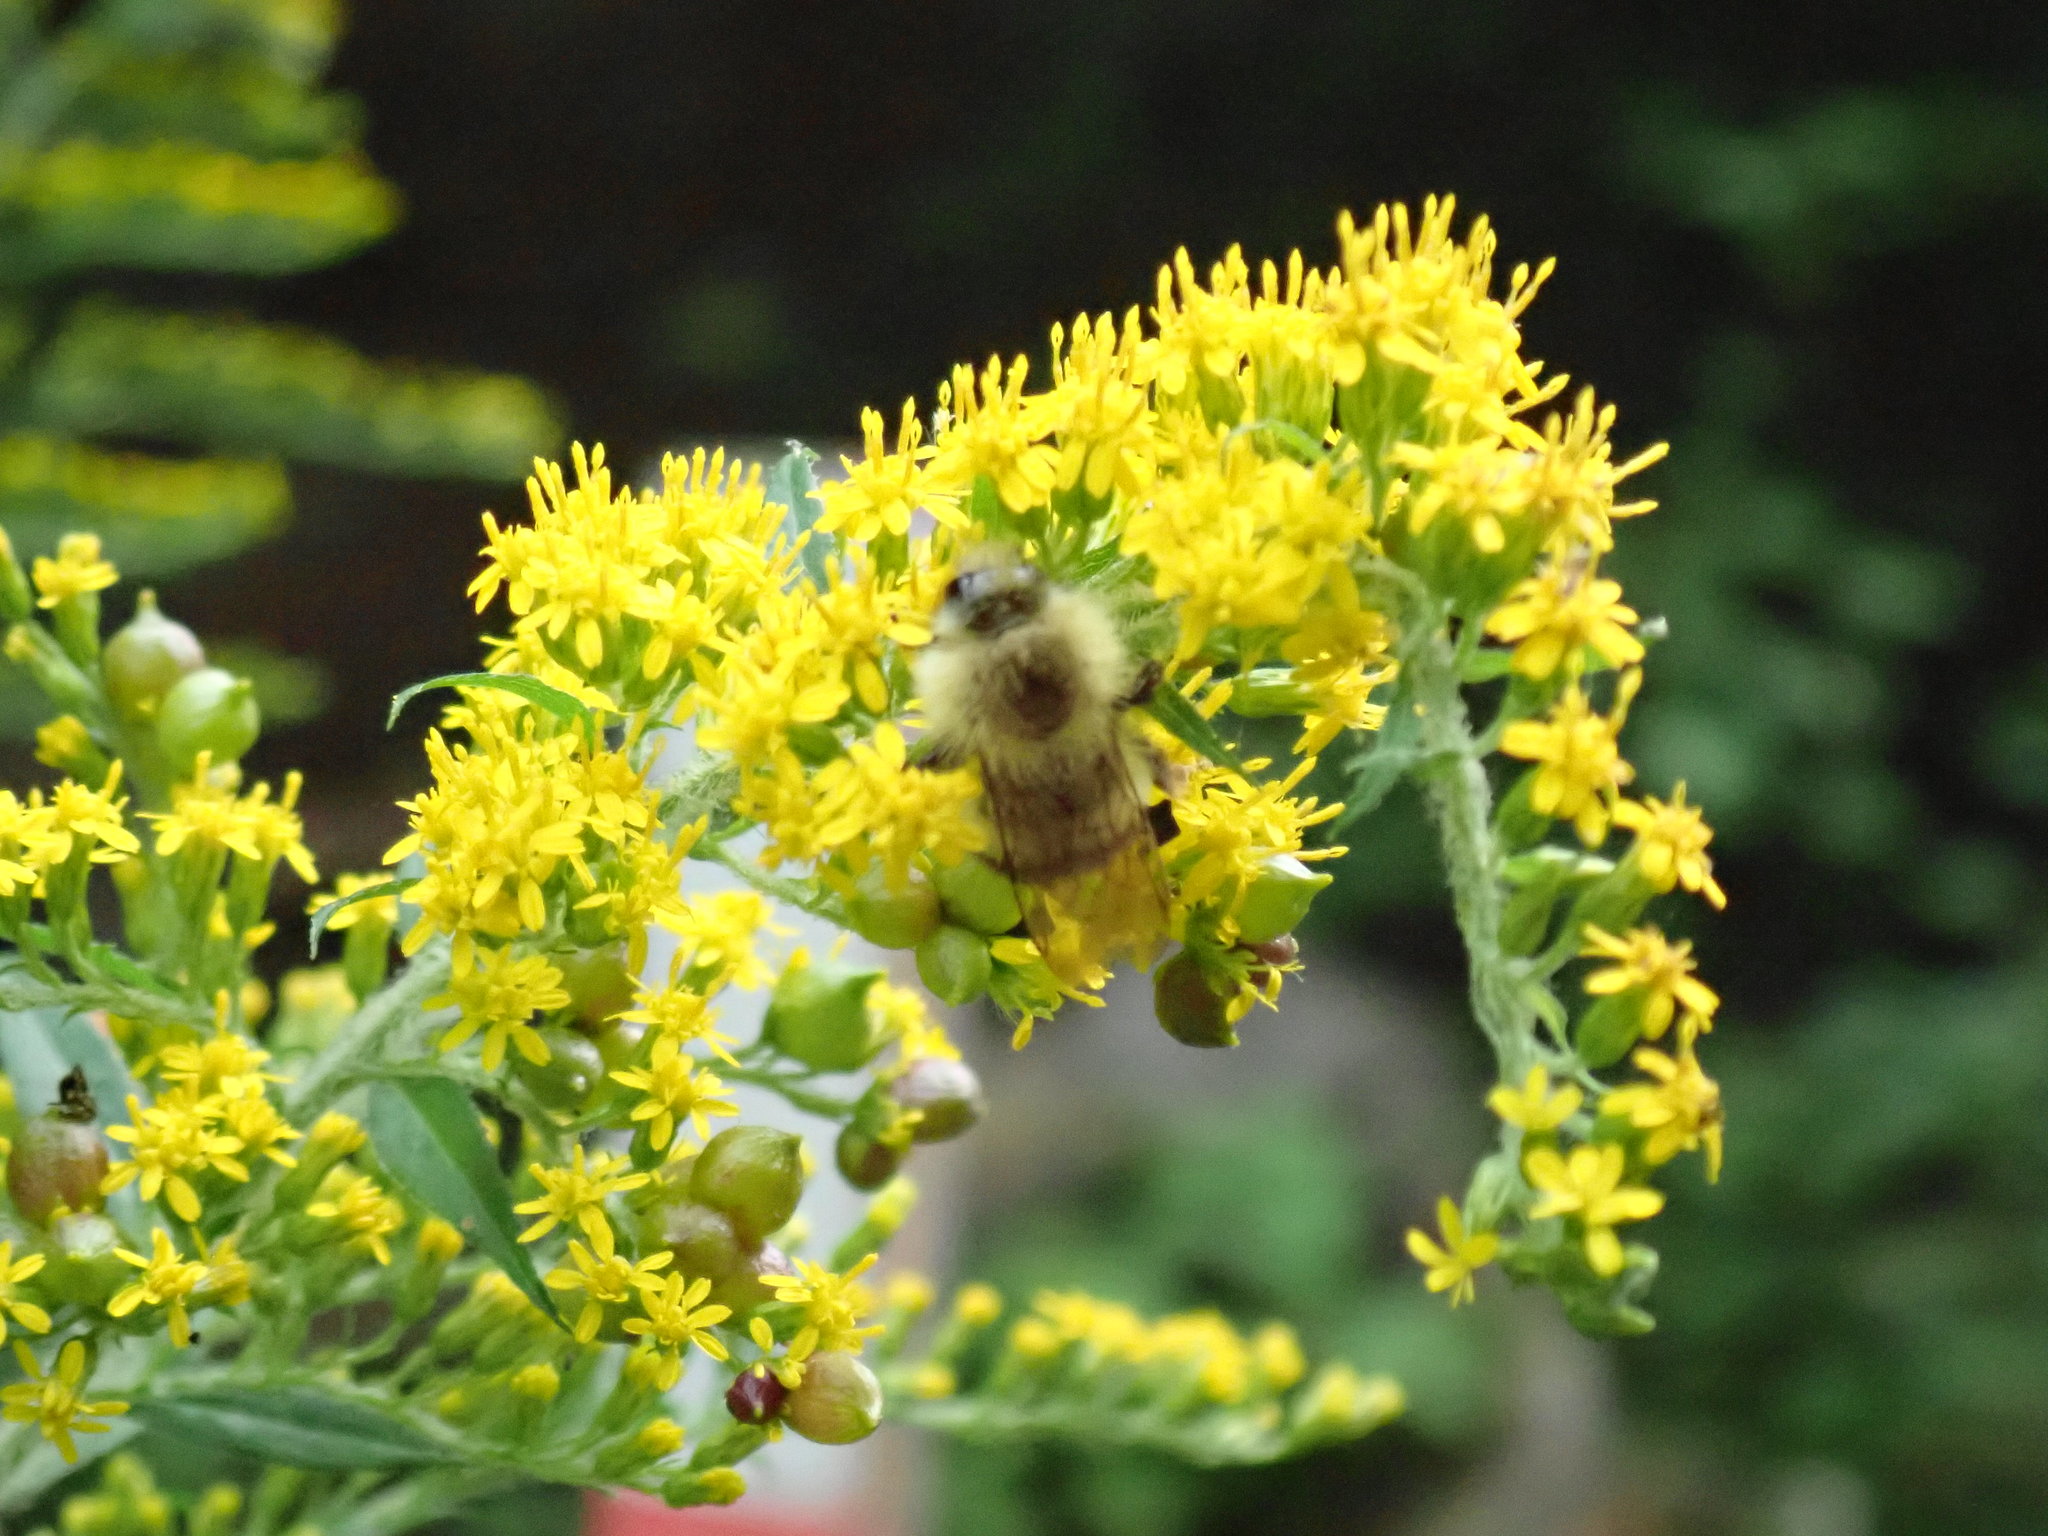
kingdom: Animalia
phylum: Arthropoda
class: Insecta
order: Hymenoptera
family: Apidae
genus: Pyrobombus
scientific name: Pyrobombus
